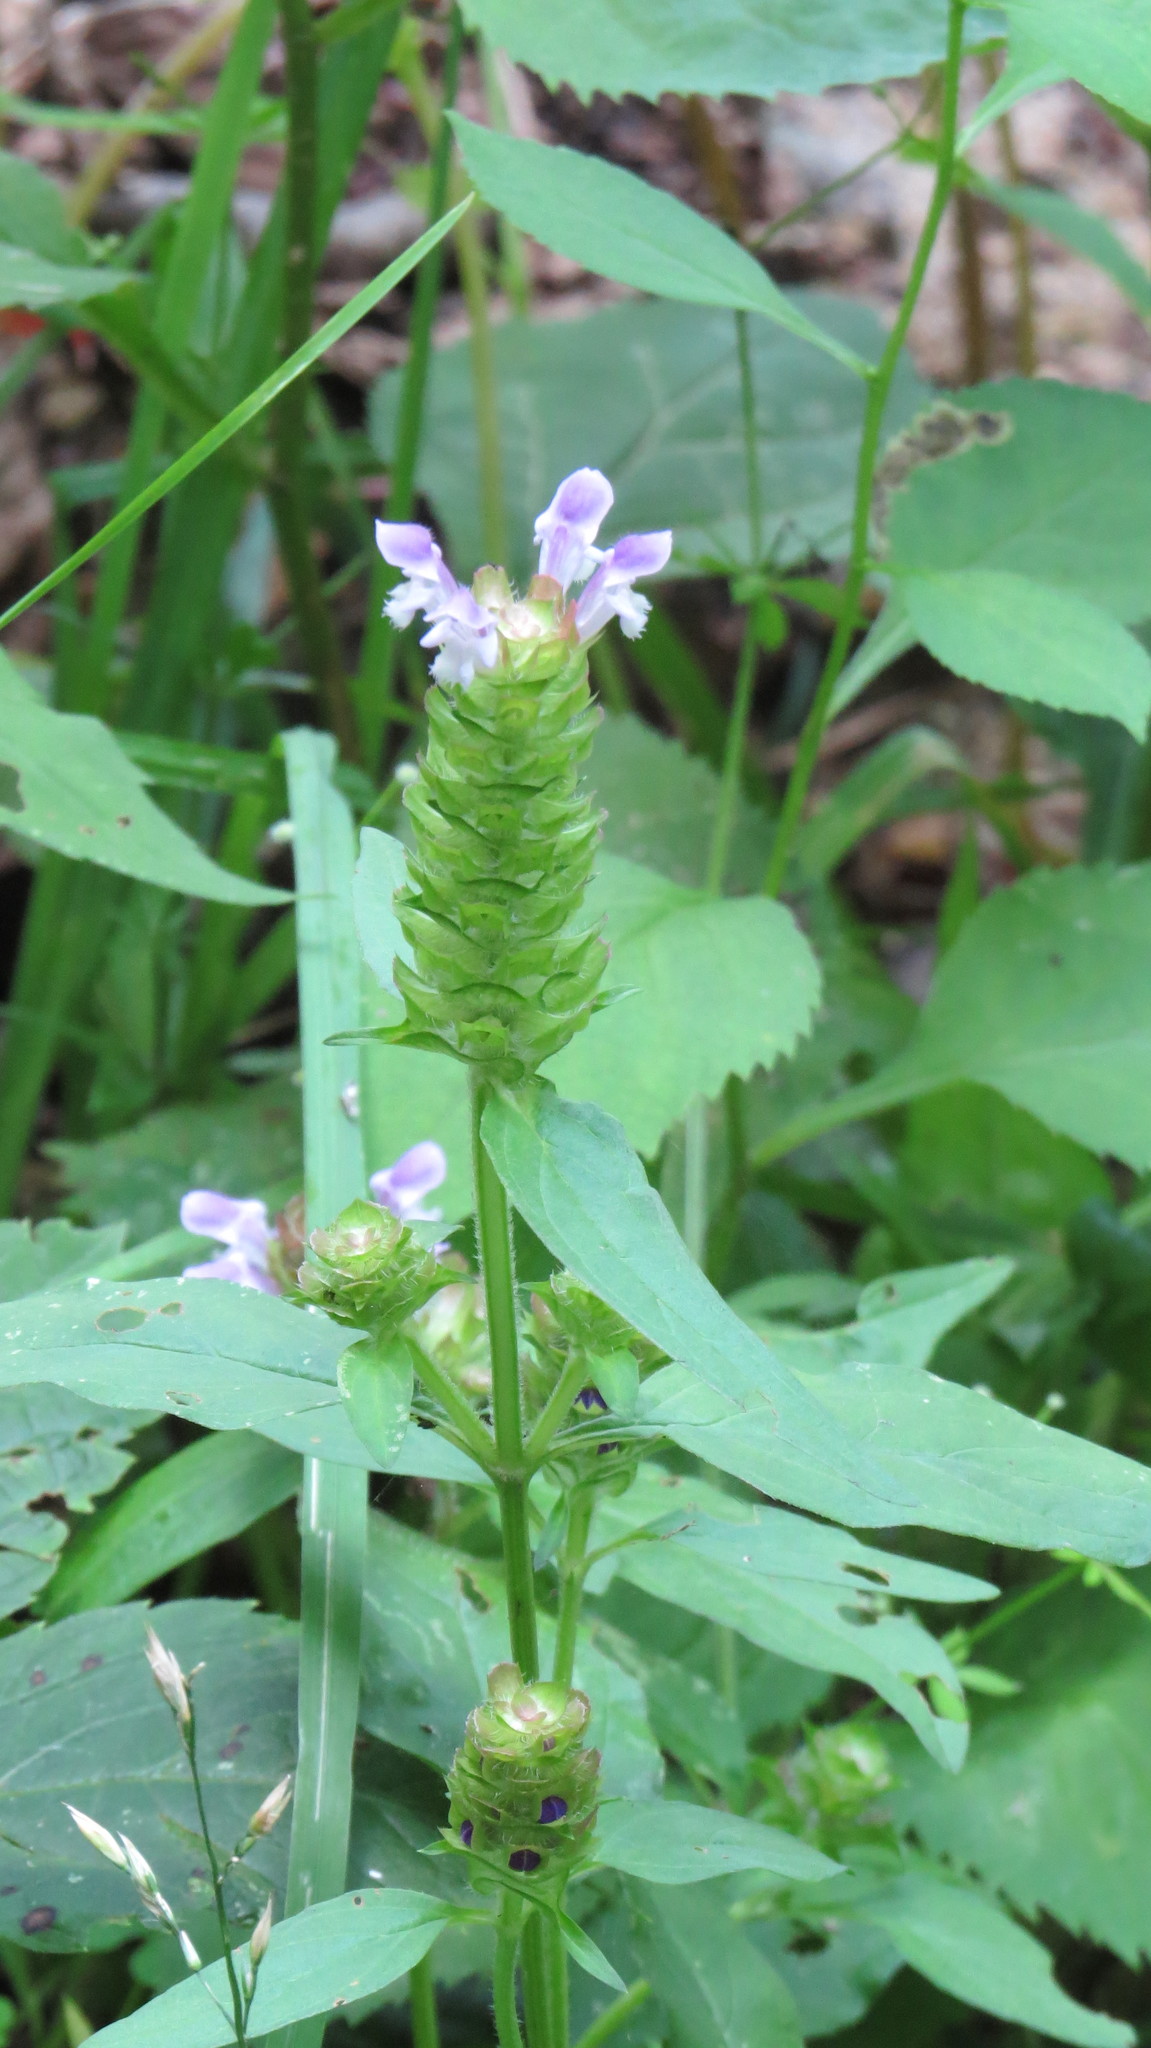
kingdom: Plantae
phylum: Tracheophyta
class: Magnoliopsida
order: Lamiales
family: Lamiaceae
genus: Prunella
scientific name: Prunella vulgaris
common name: Heal-all
